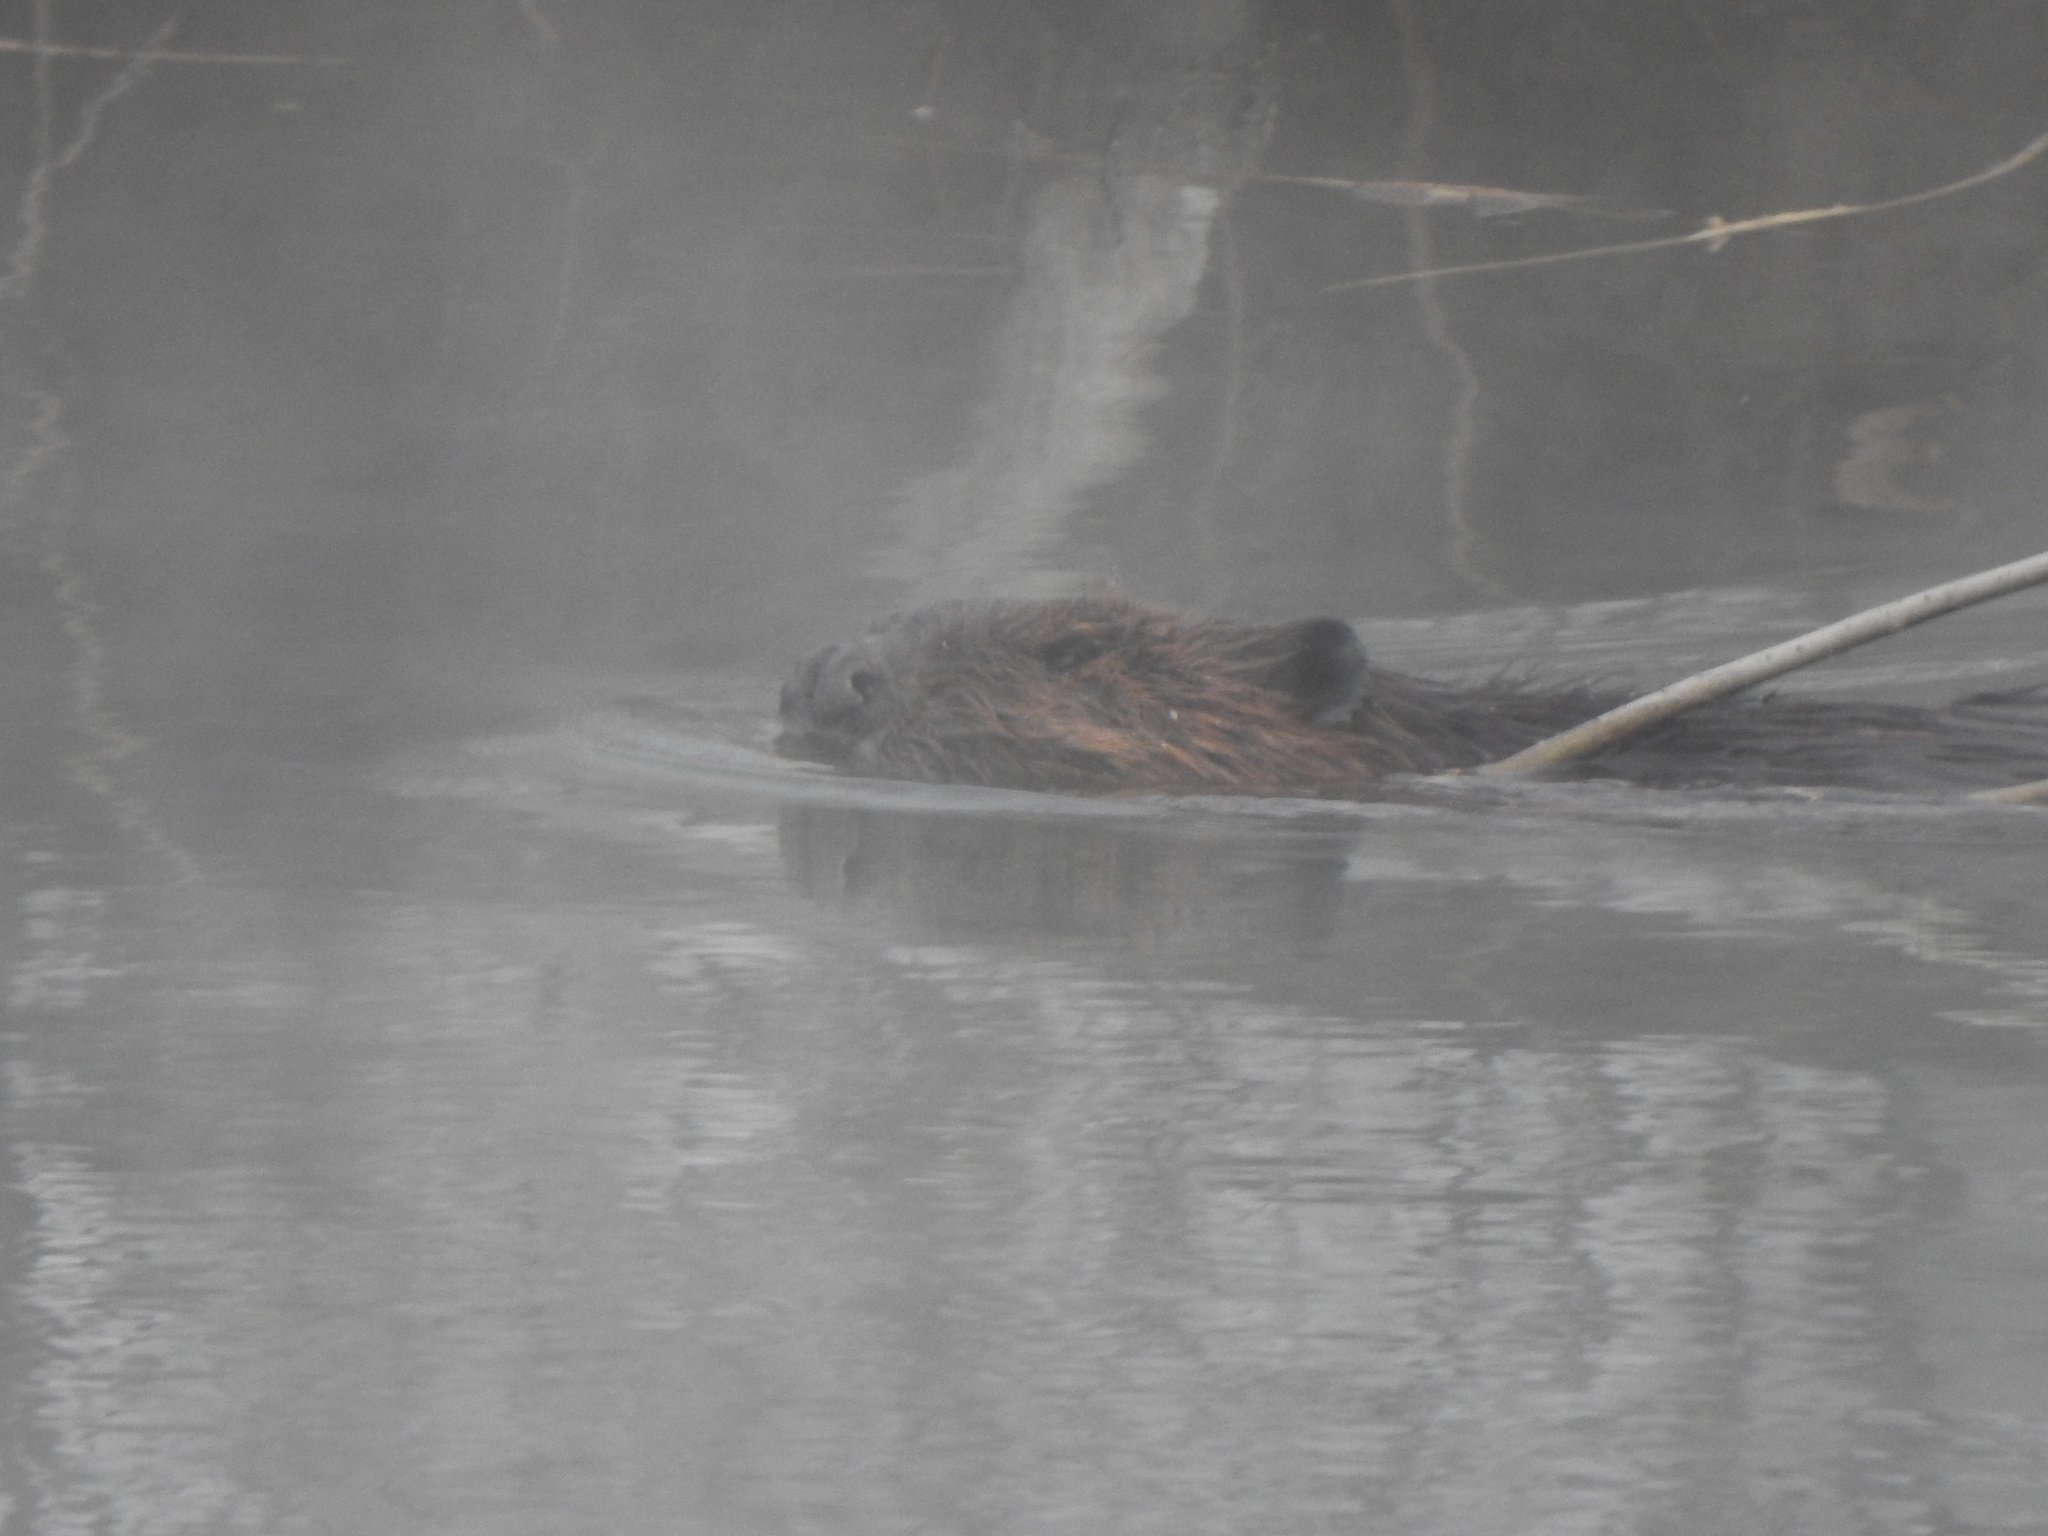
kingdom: Animalia
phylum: Chordata
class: Mammalia
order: Rodentia
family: Castoridae
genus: Castor
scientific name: Castor canadensis
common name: American beaver
